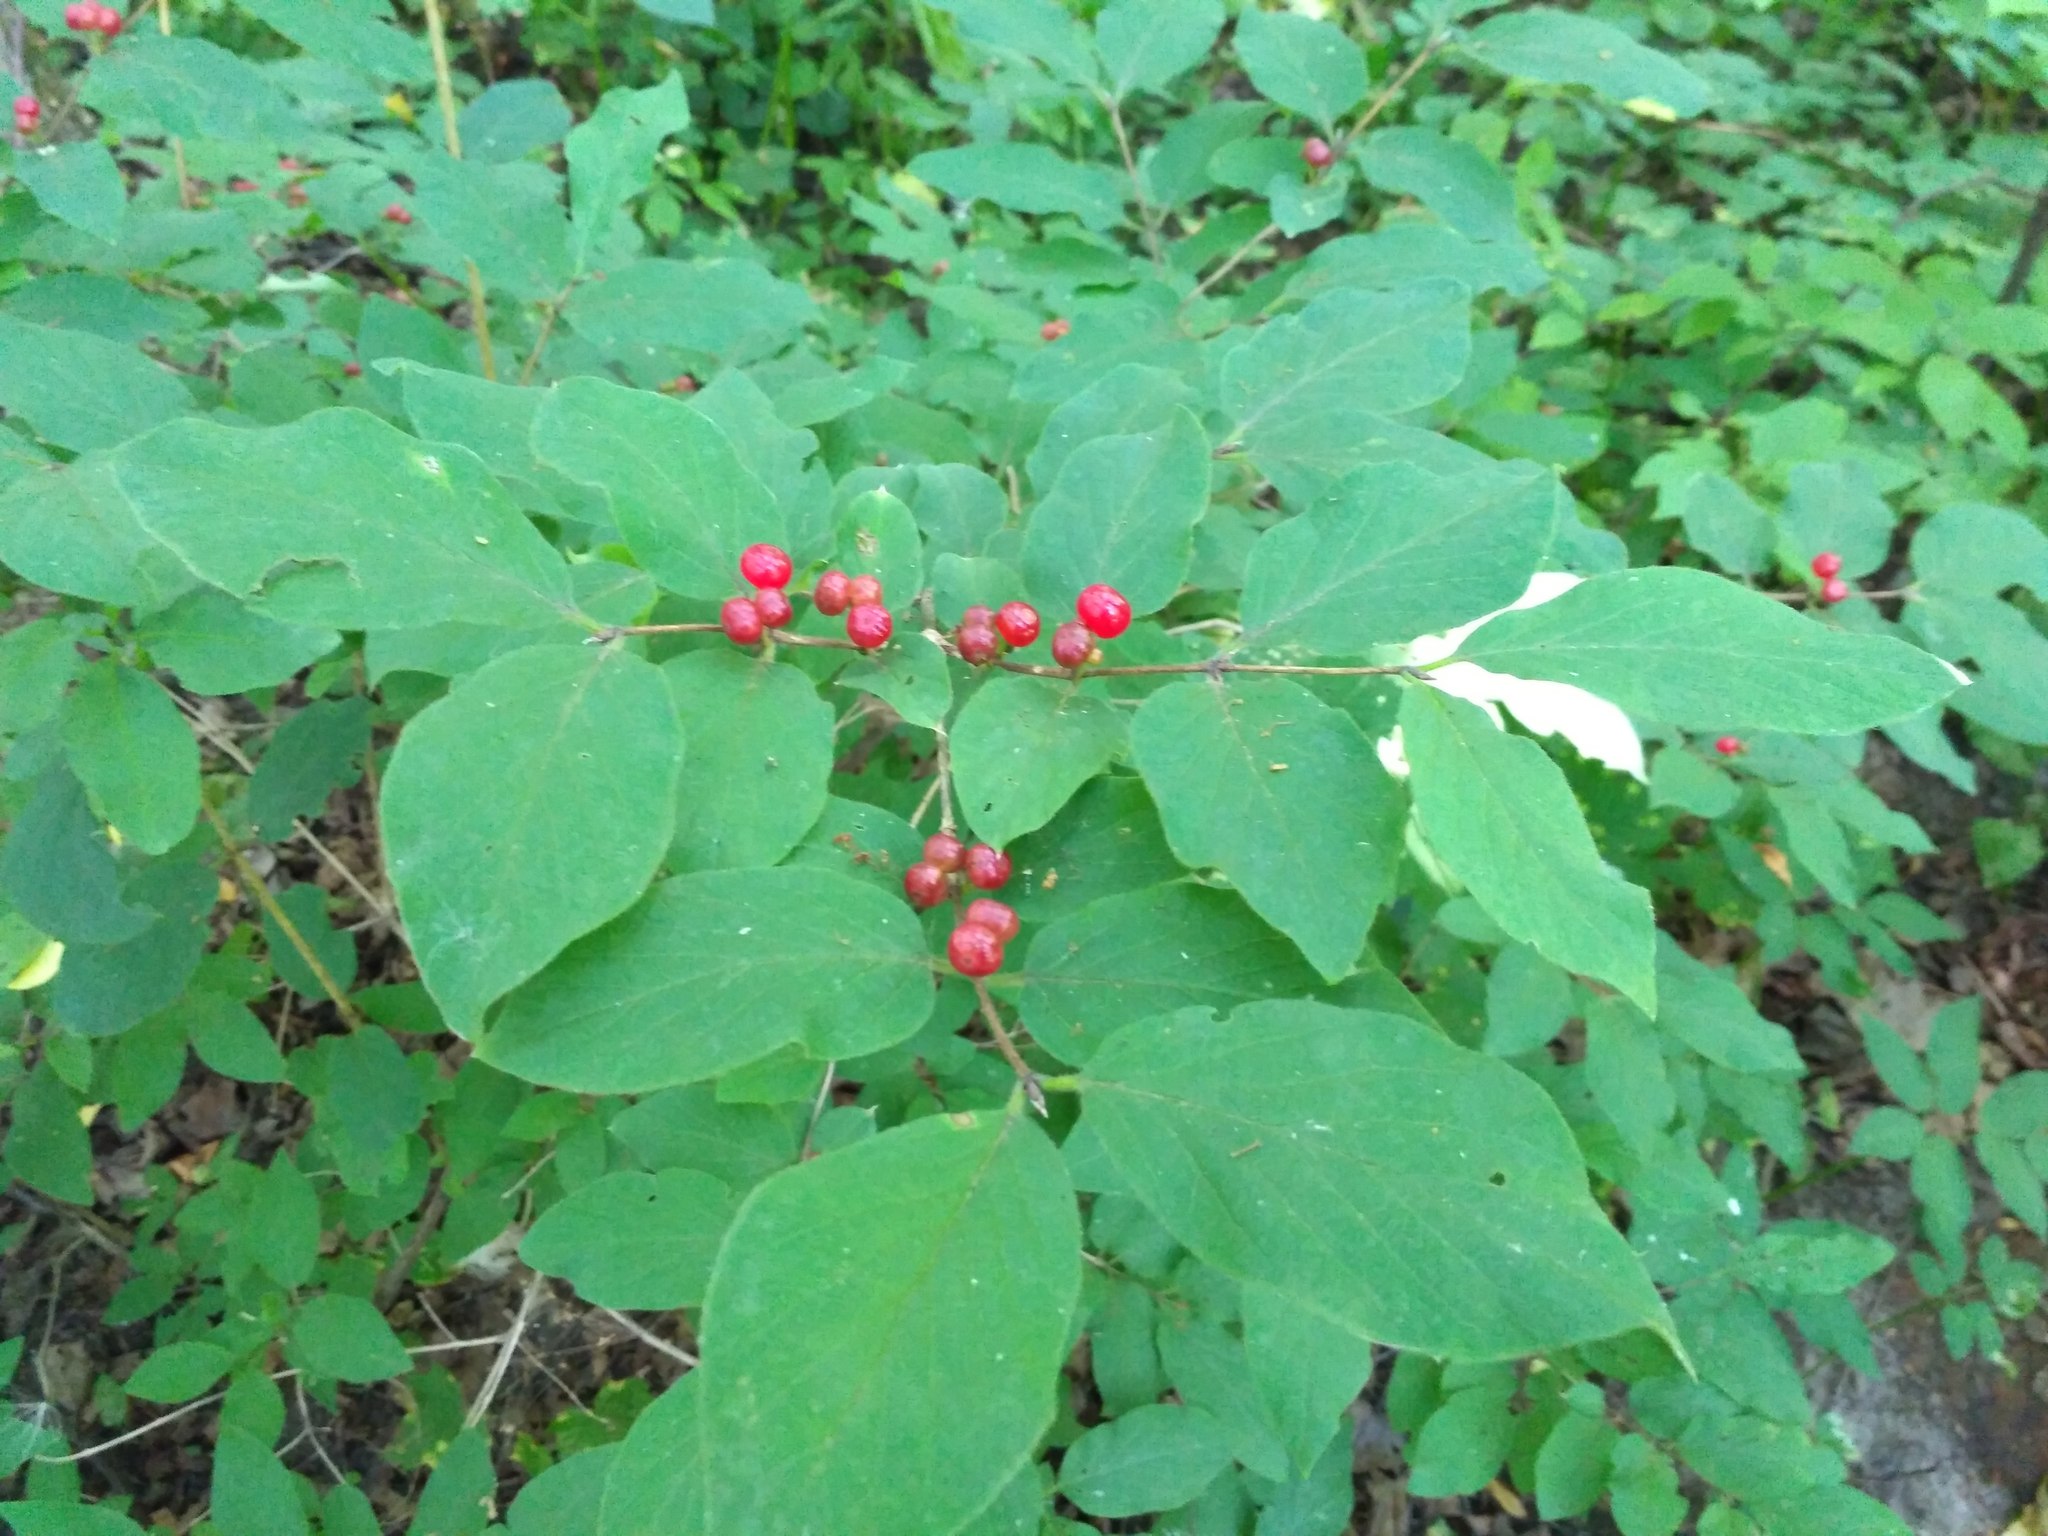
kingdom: Plantae
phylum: Tracheophyta
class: Magnoliopsida
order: Dipsacales
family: Caprifoliaceae
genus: Lonicera
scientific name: Lonicera xylosteum
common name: Fly honeysuckle
